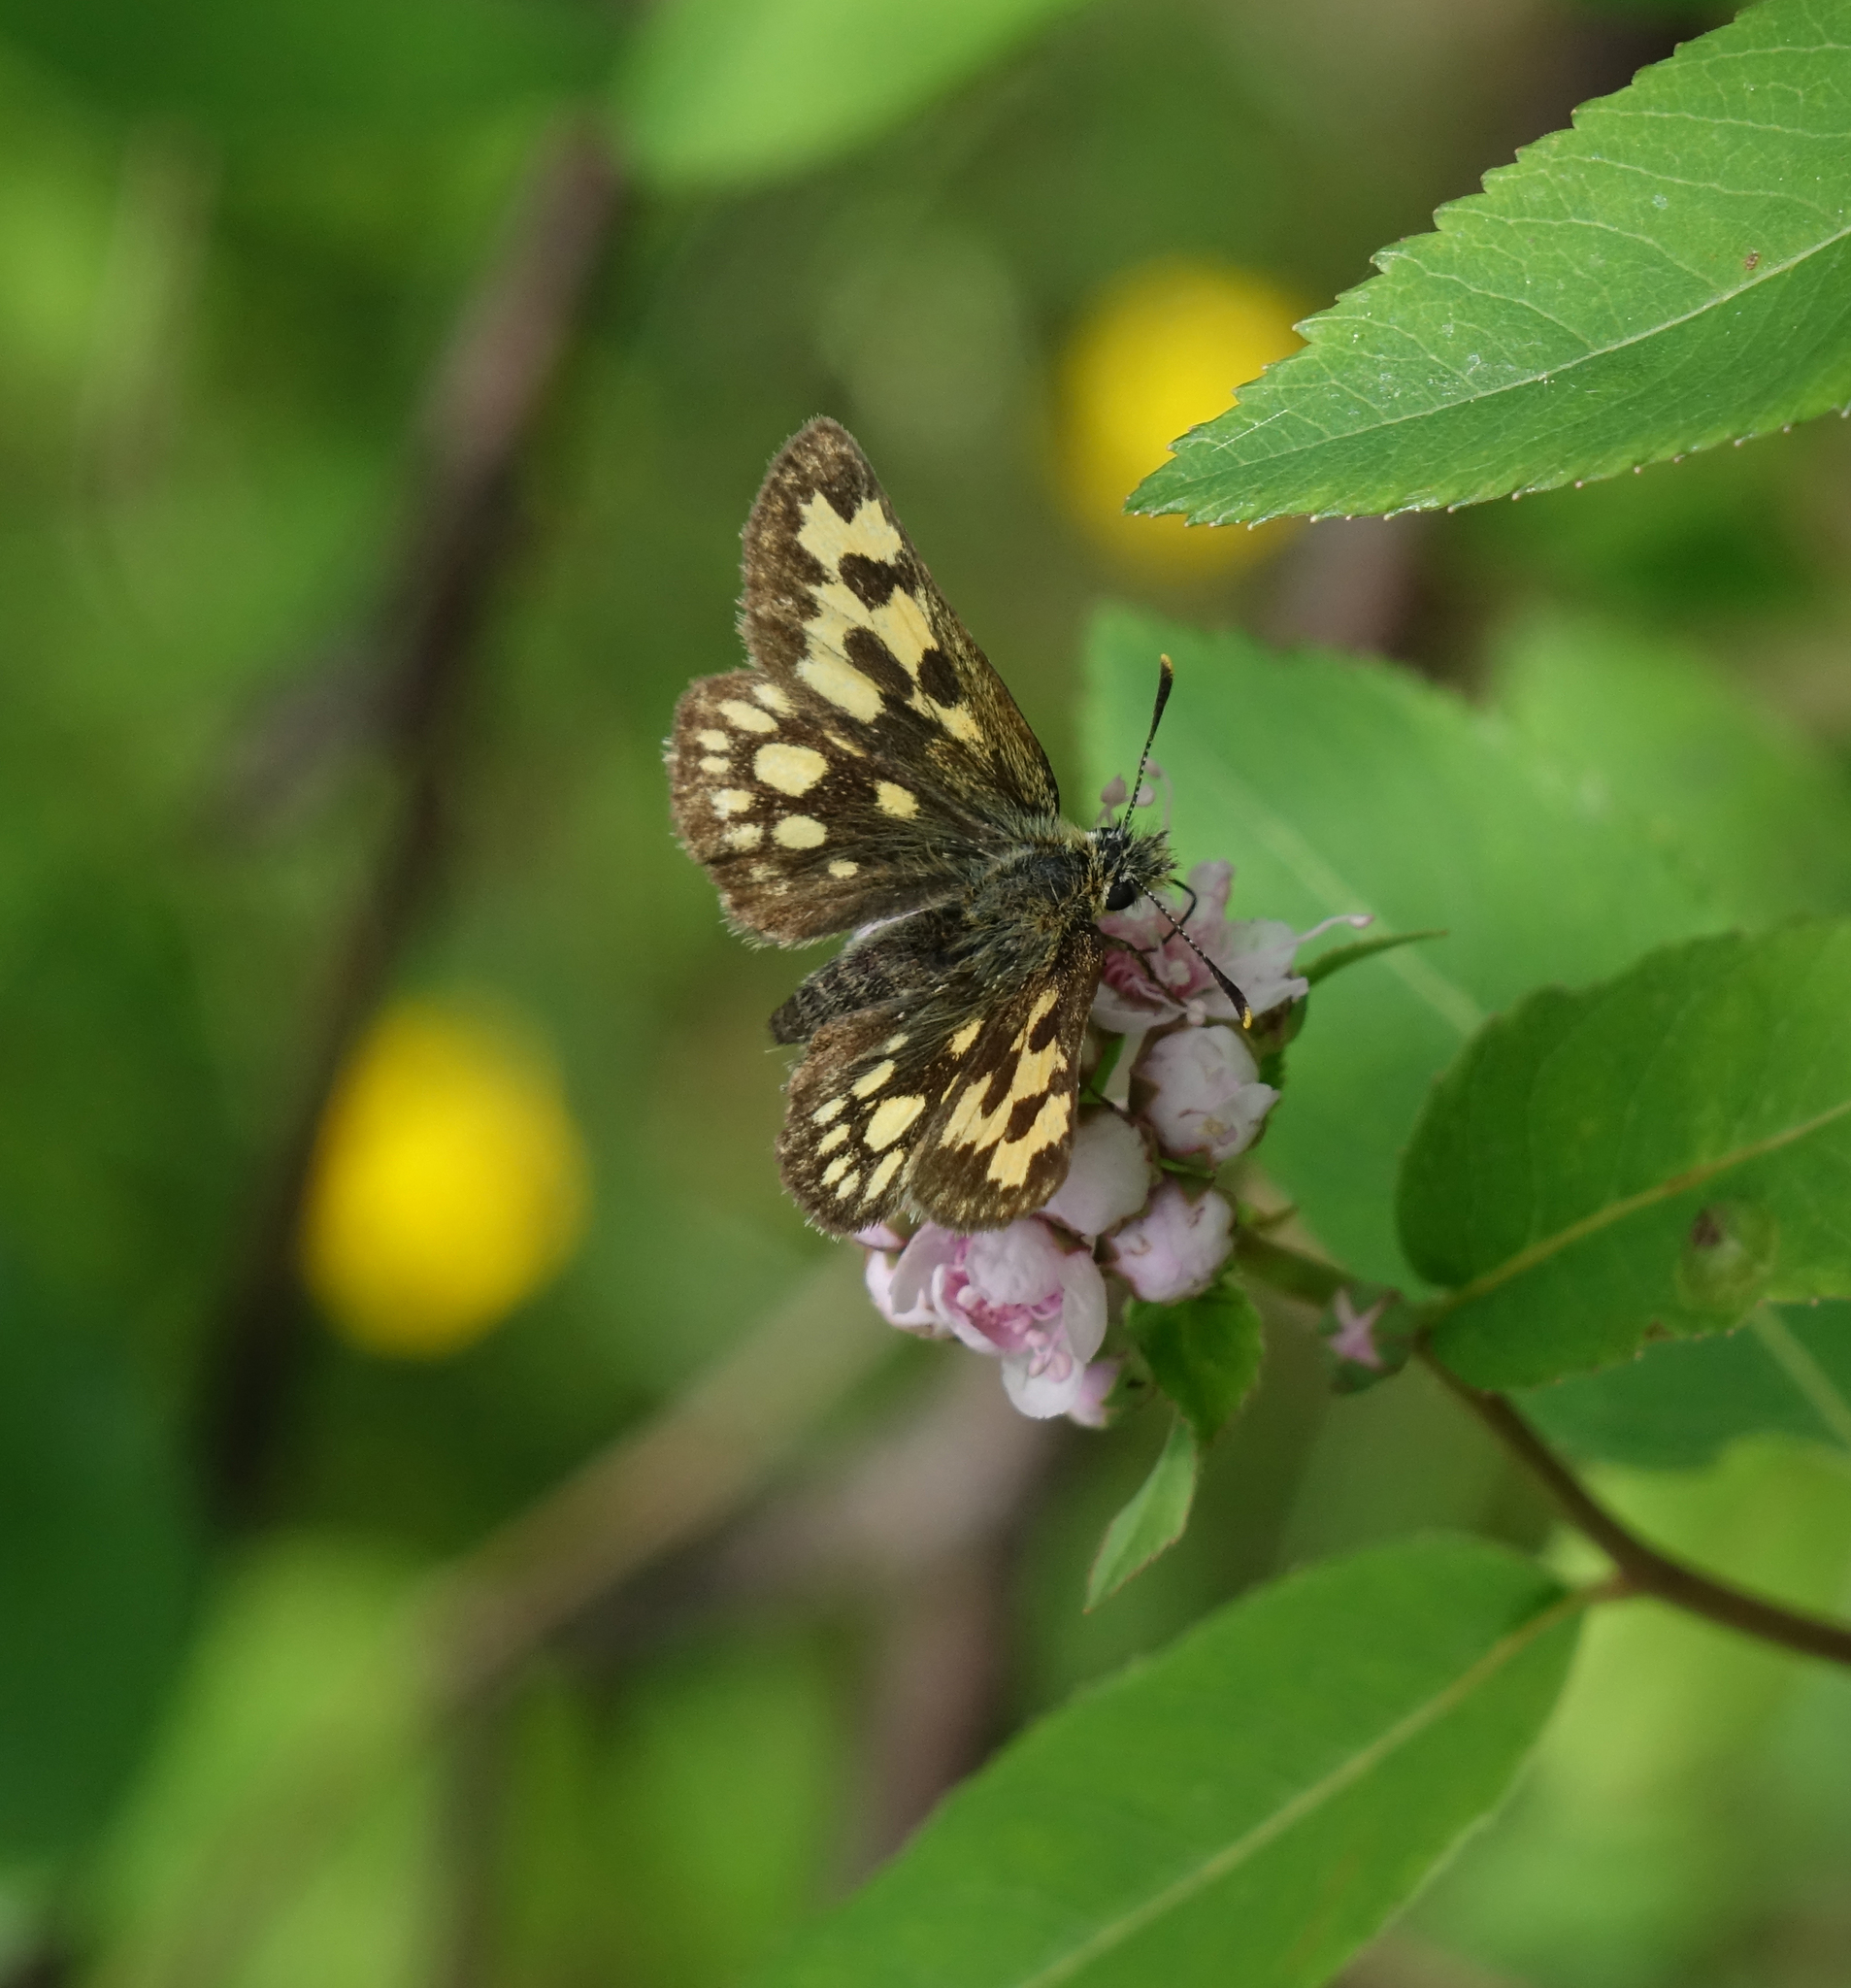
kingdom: Animalia
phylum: Arthropoda
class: Insecta
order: Lepidoptera
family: Hesperiidae
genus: Carterocephalus
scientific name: Carterocephalus silvicola
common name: Northern chequered skipper
